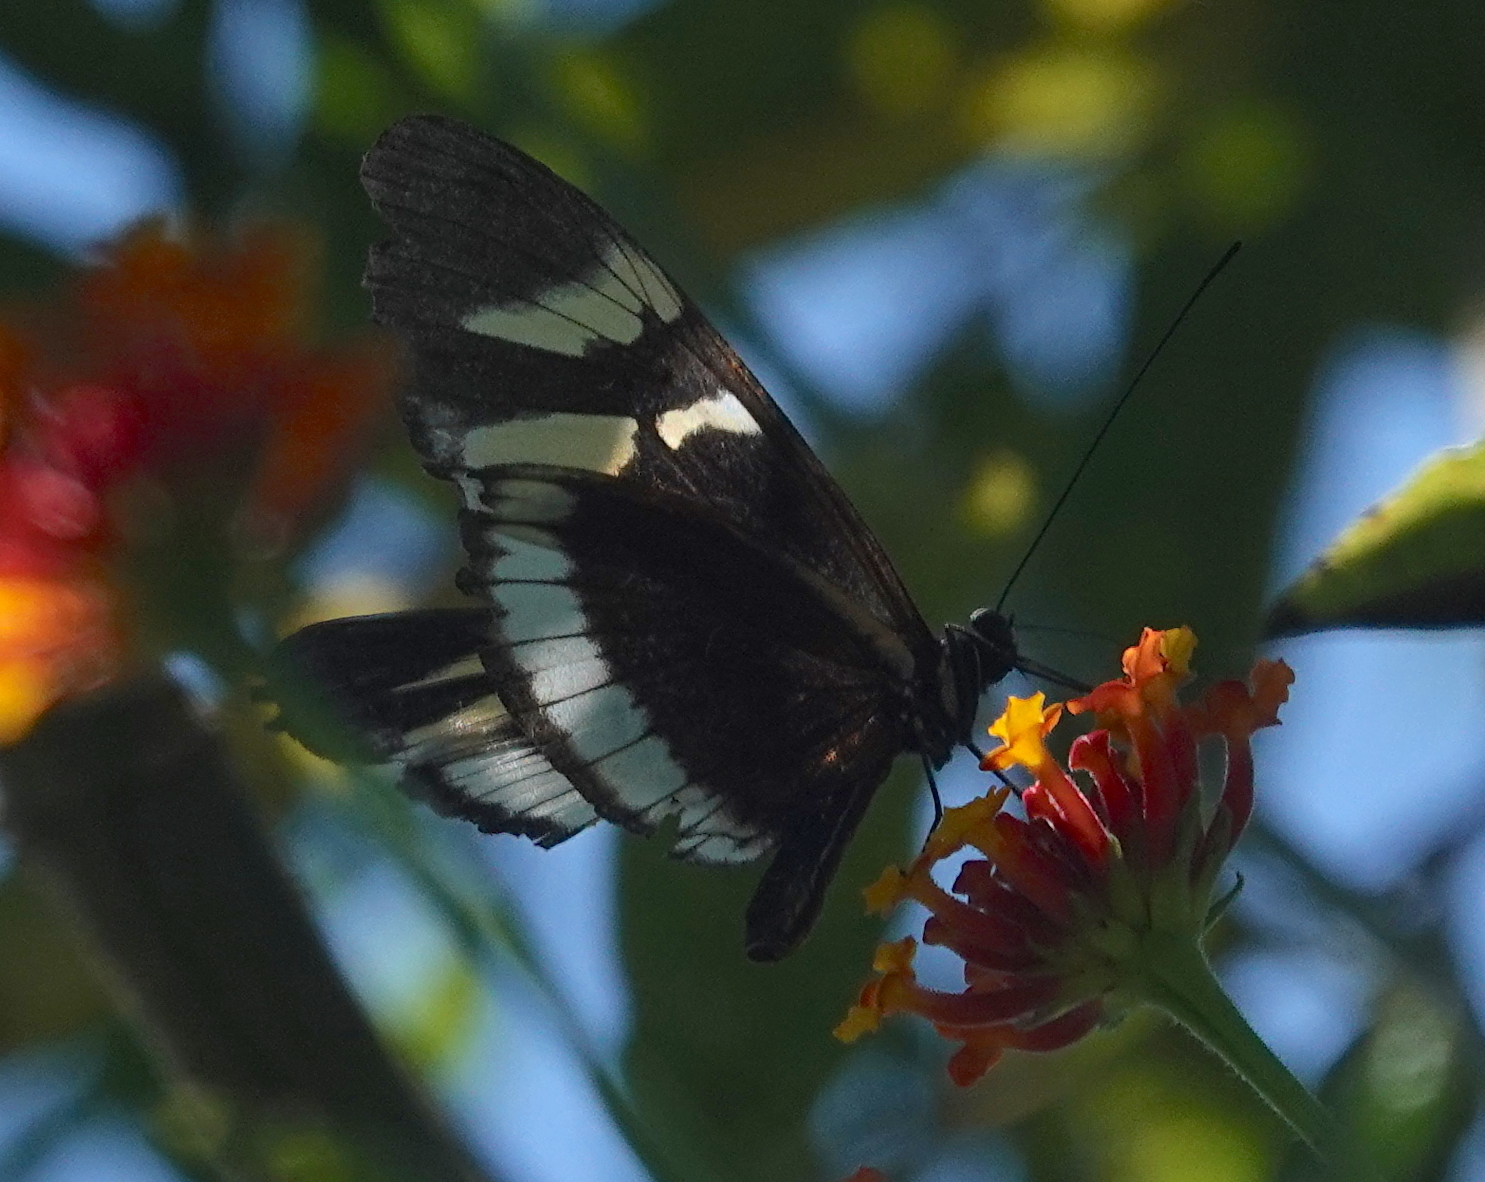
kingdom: Animalia
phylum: Arthropoda
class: Insecta
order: Lepidoptera
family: Nymphalidae
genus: Heliconius
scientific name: Heliconius cydno
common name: Cydno longwing
